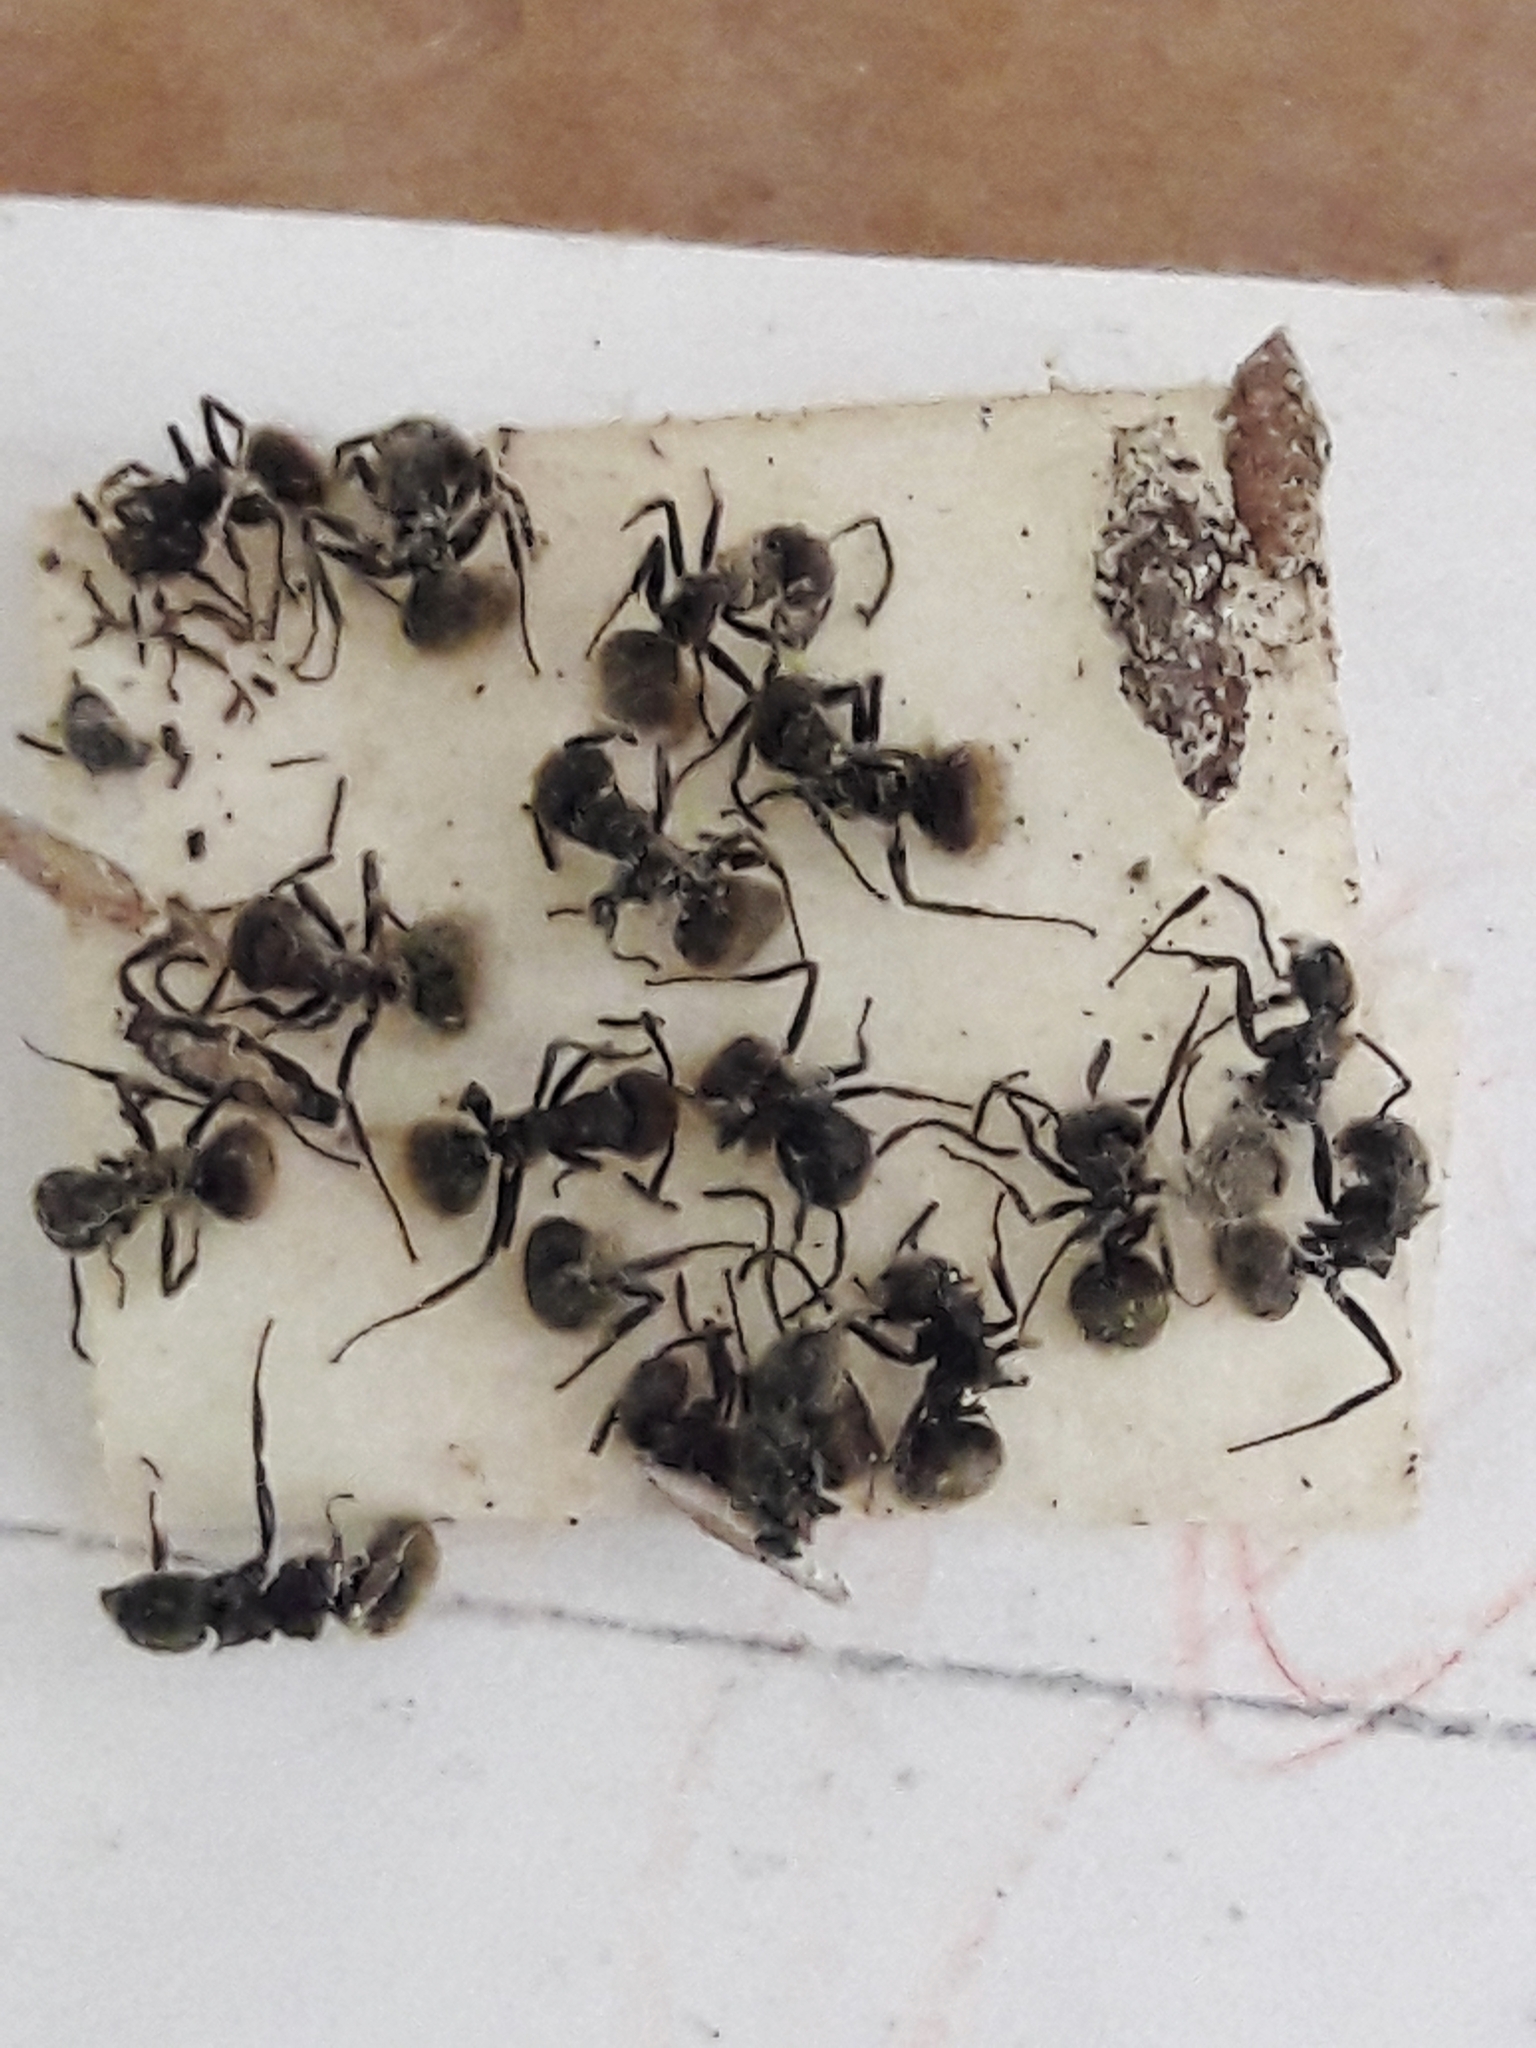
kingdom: Animalia
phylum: Arthropoda
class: Insecta
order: Hymenoptera
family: Formicidae
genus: Dolichoderus
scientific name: Dolichoderus bispinosus
